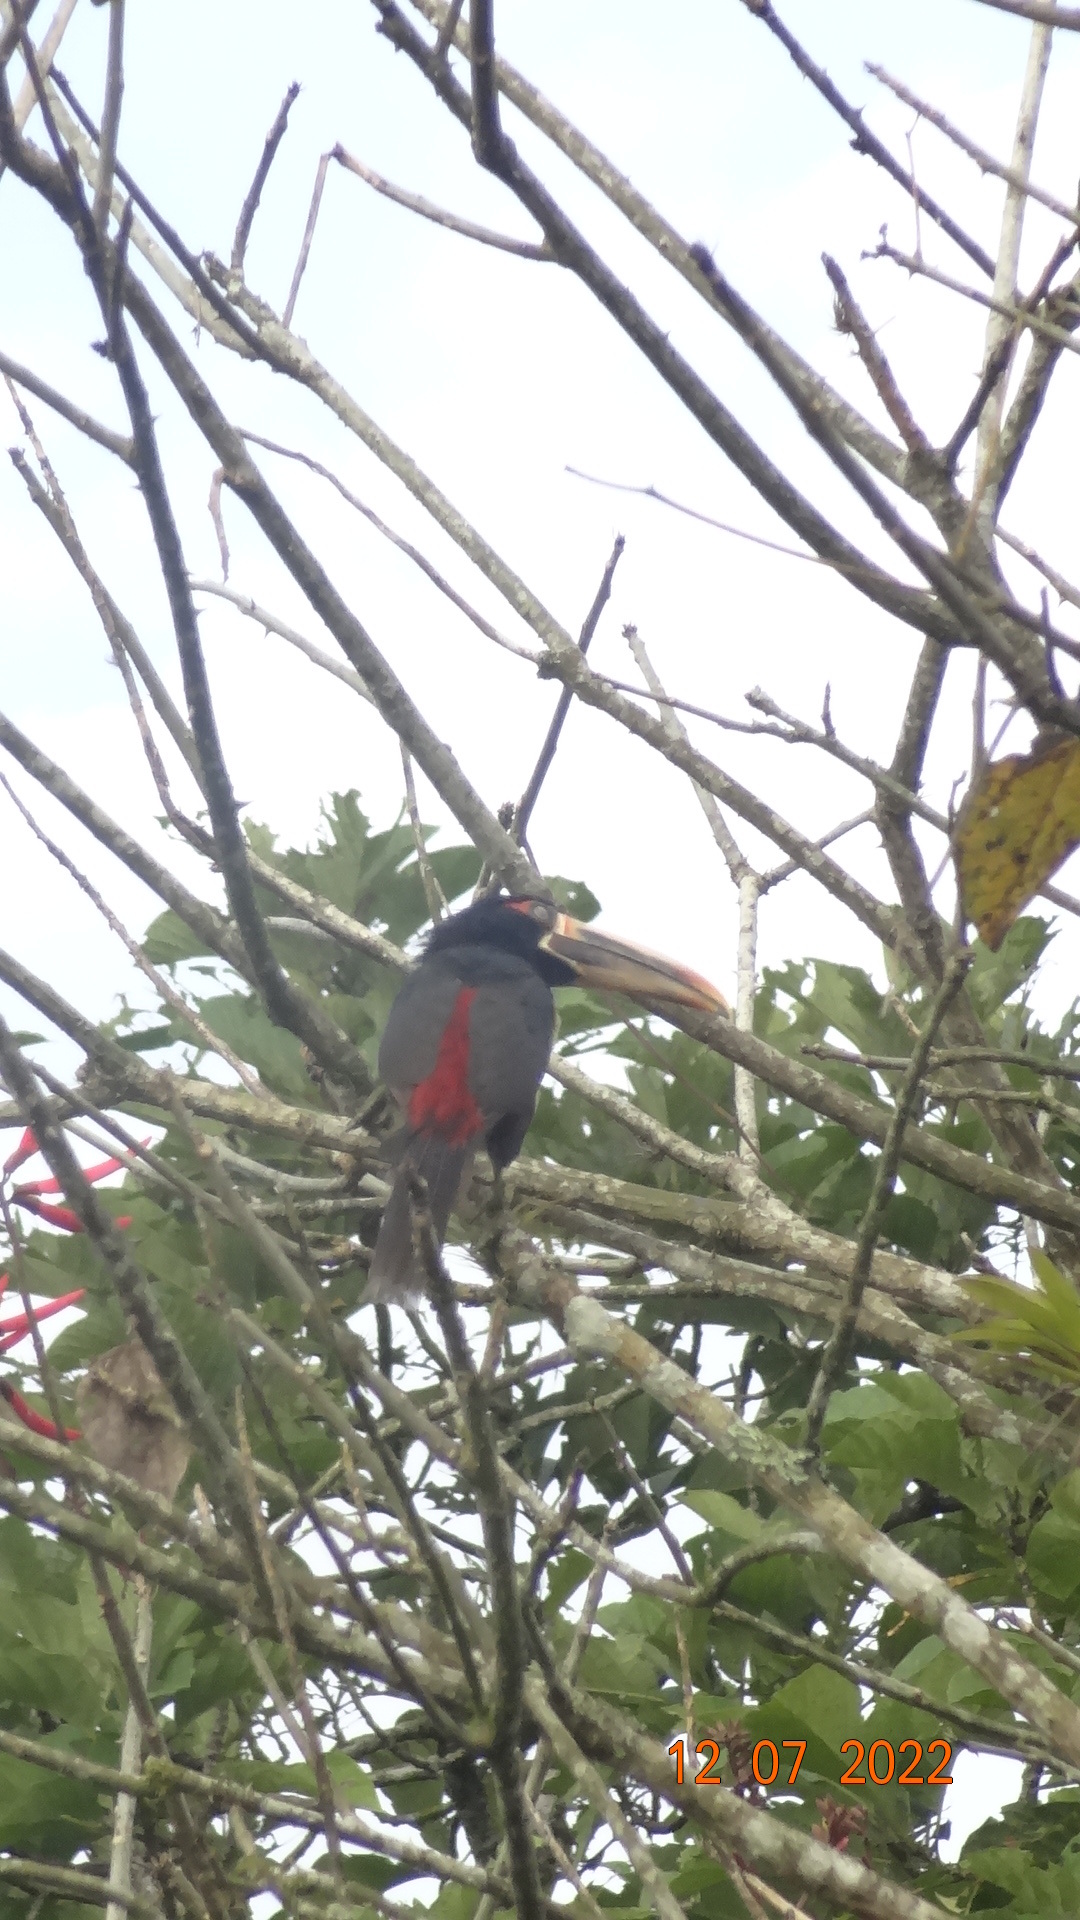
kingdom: Animalia
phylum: Chordata
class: Aves
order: Piciformes
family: Ramphastidae
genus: Pteroglossus
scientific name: Pteroglossus torquatus
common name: Collared aracari
